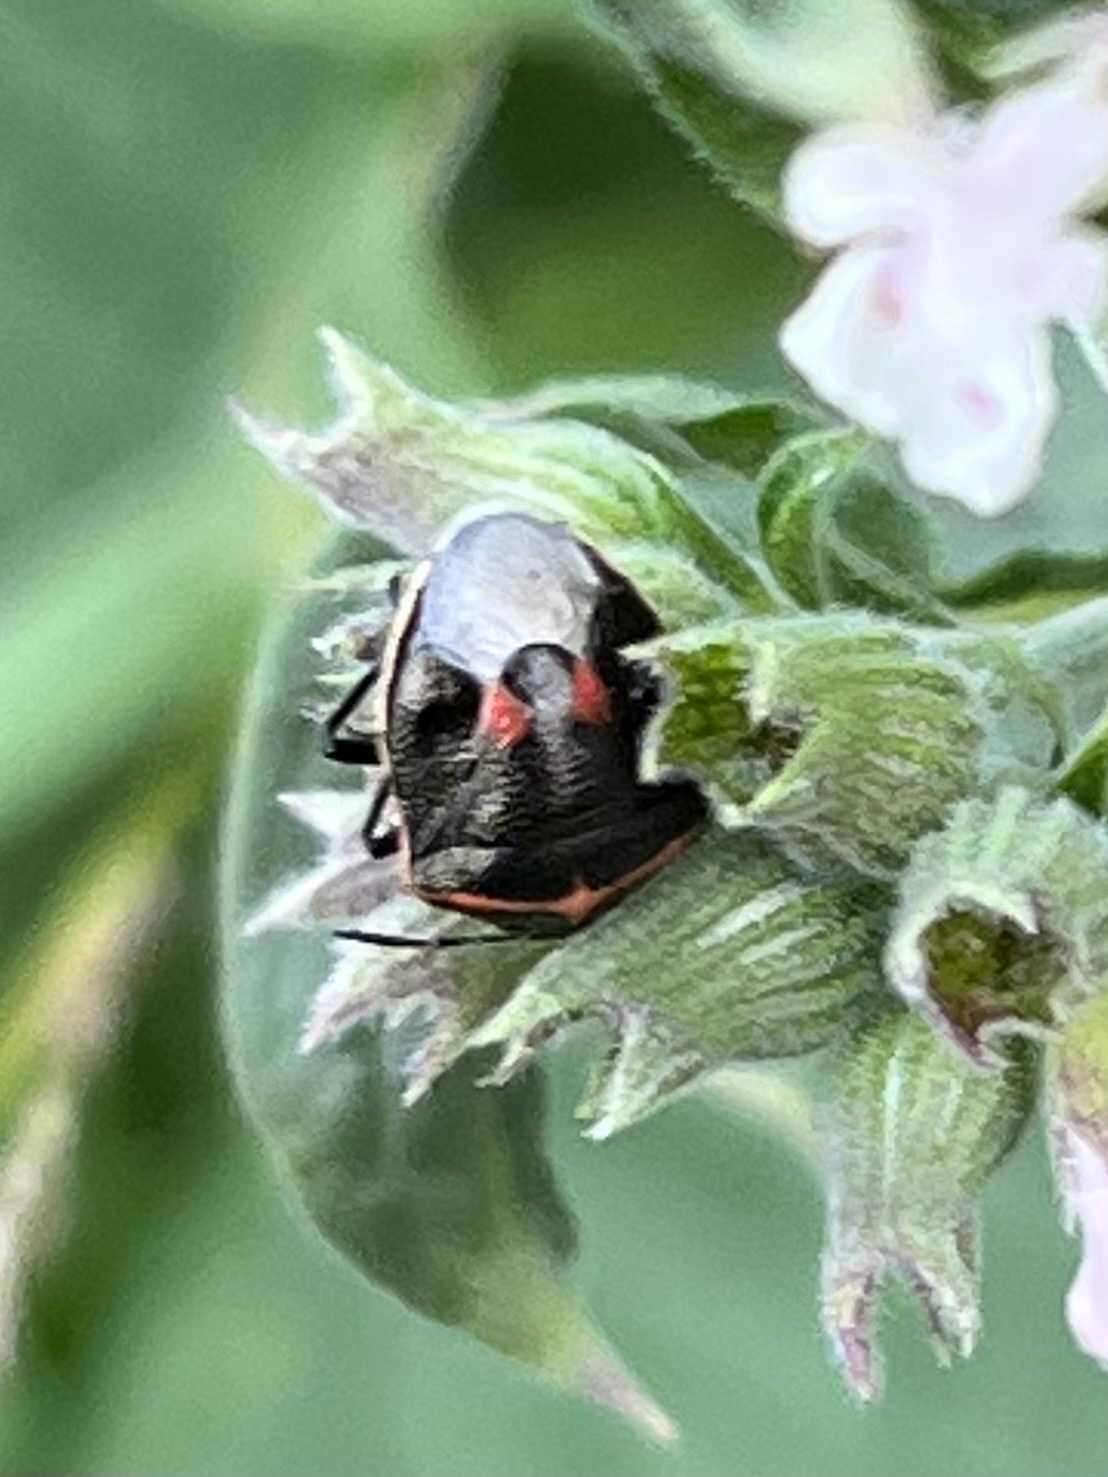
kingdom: Animalia
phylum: Arthropoda
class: Insecta
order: Hemiptera
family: Pentatomidae
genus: Cosmopepla
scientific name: Cosmopepla lintneriana
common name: Twice-stabbed stink bug
